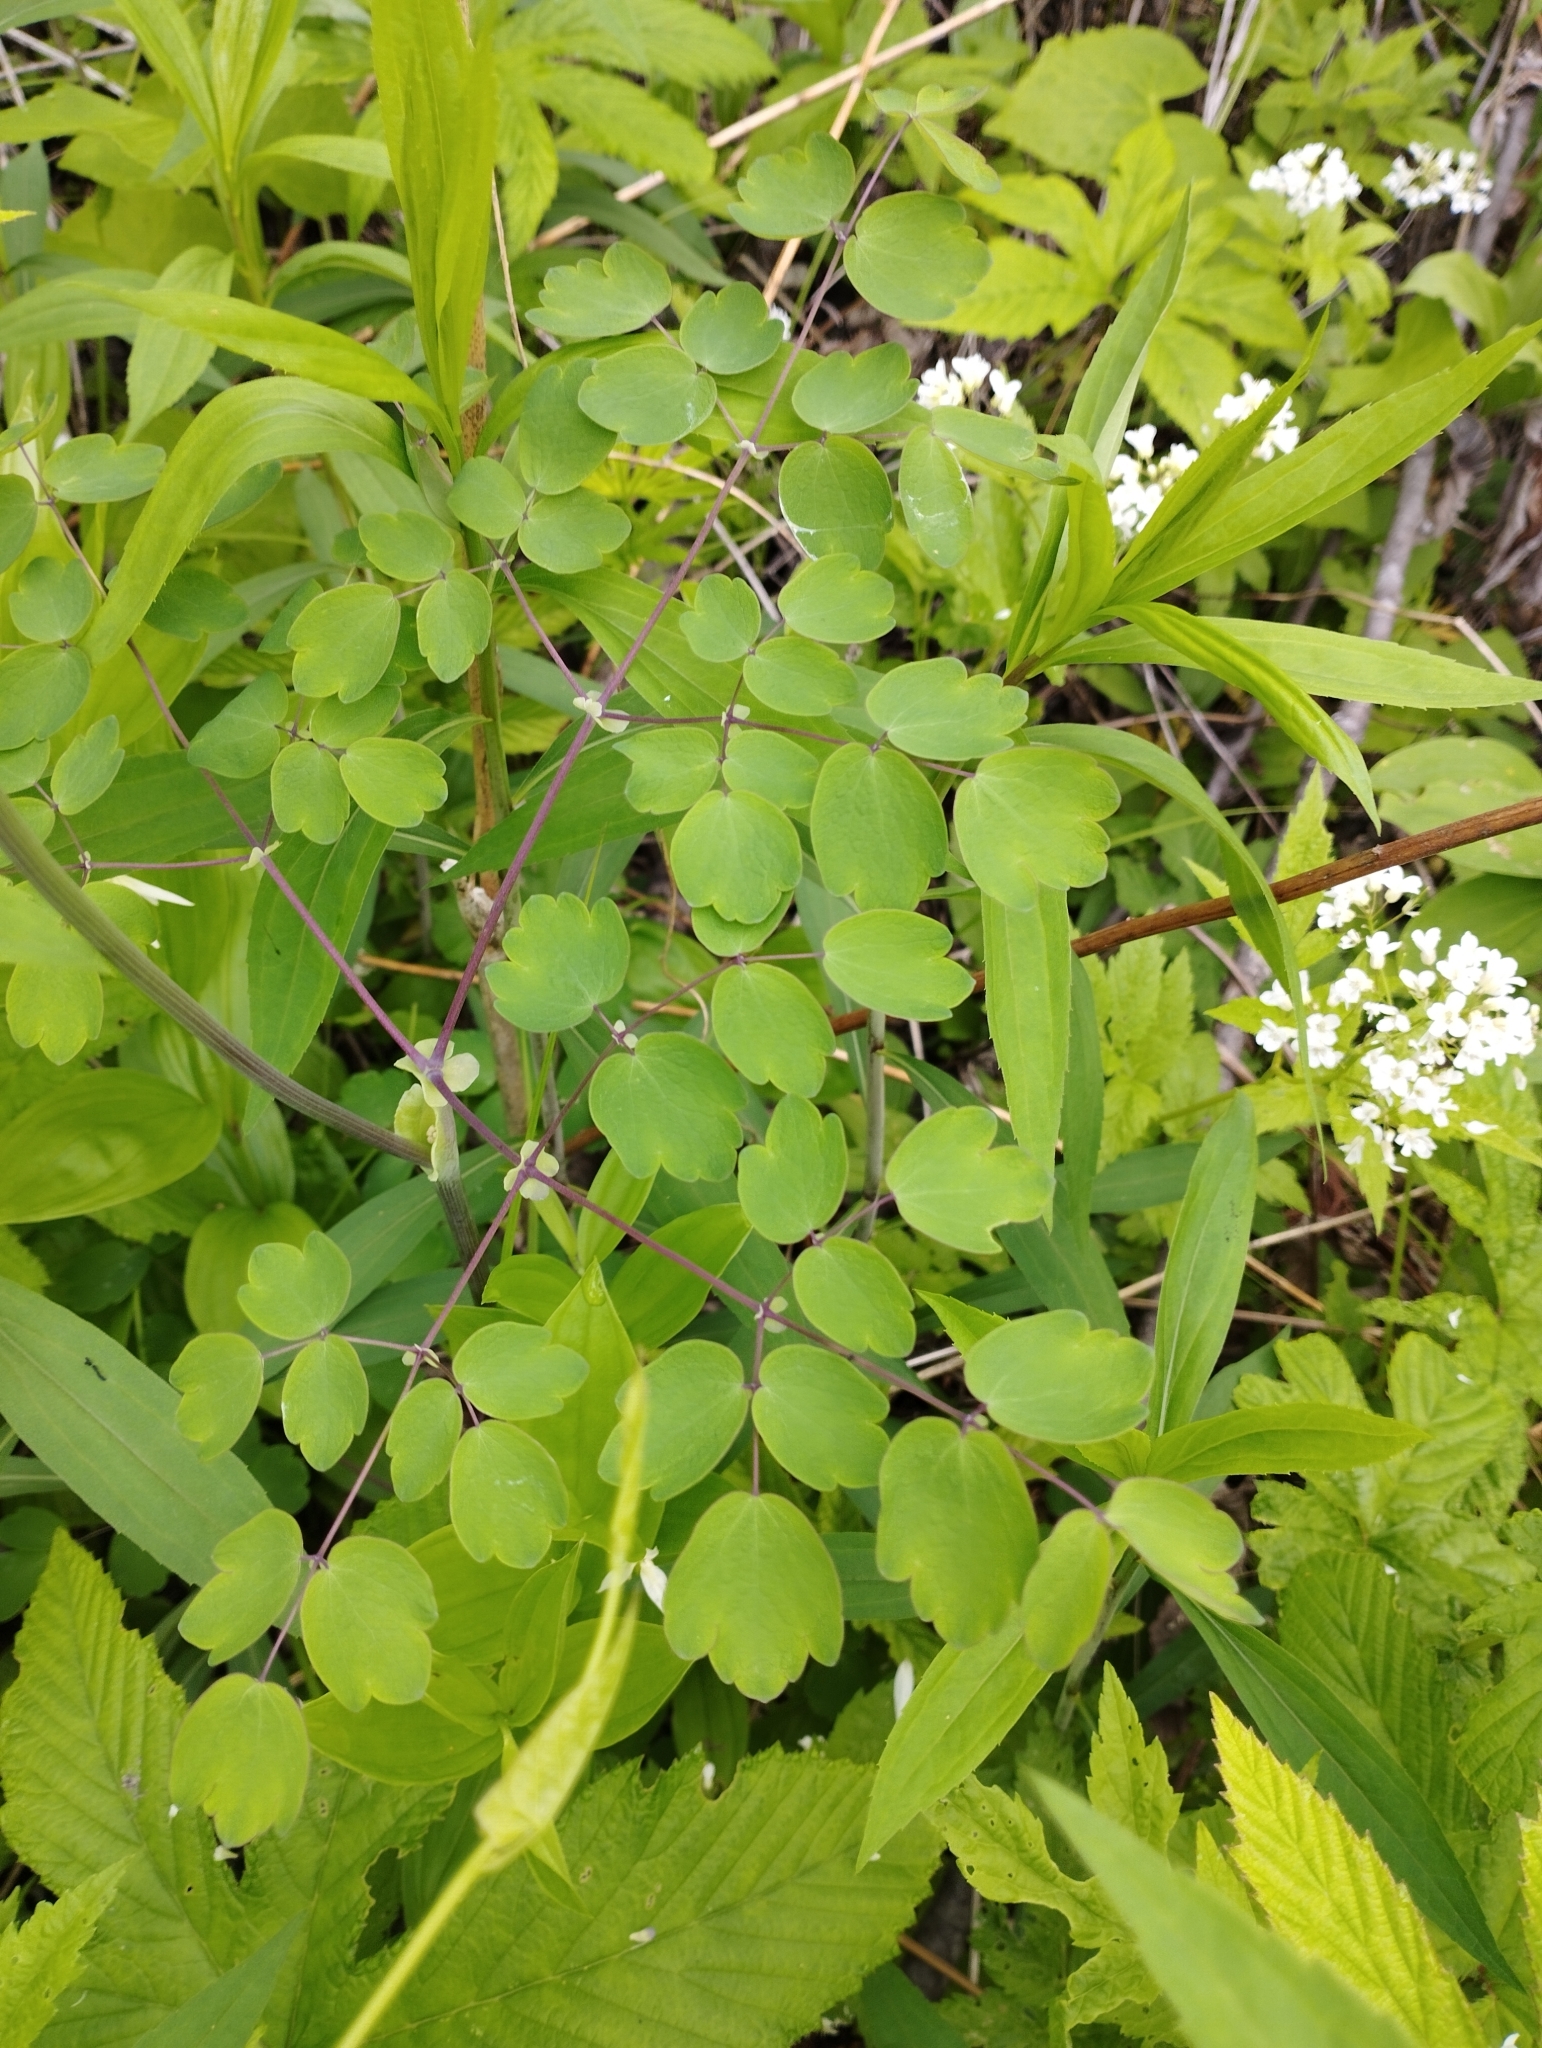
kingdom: Plantae
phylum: Tracheophyta
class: Magnoliopsida
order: Ranunculales
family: Ranunculaceae
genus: Thalictrum
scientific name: Thalictrum aquilegiifolium
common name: French meadow-rue
